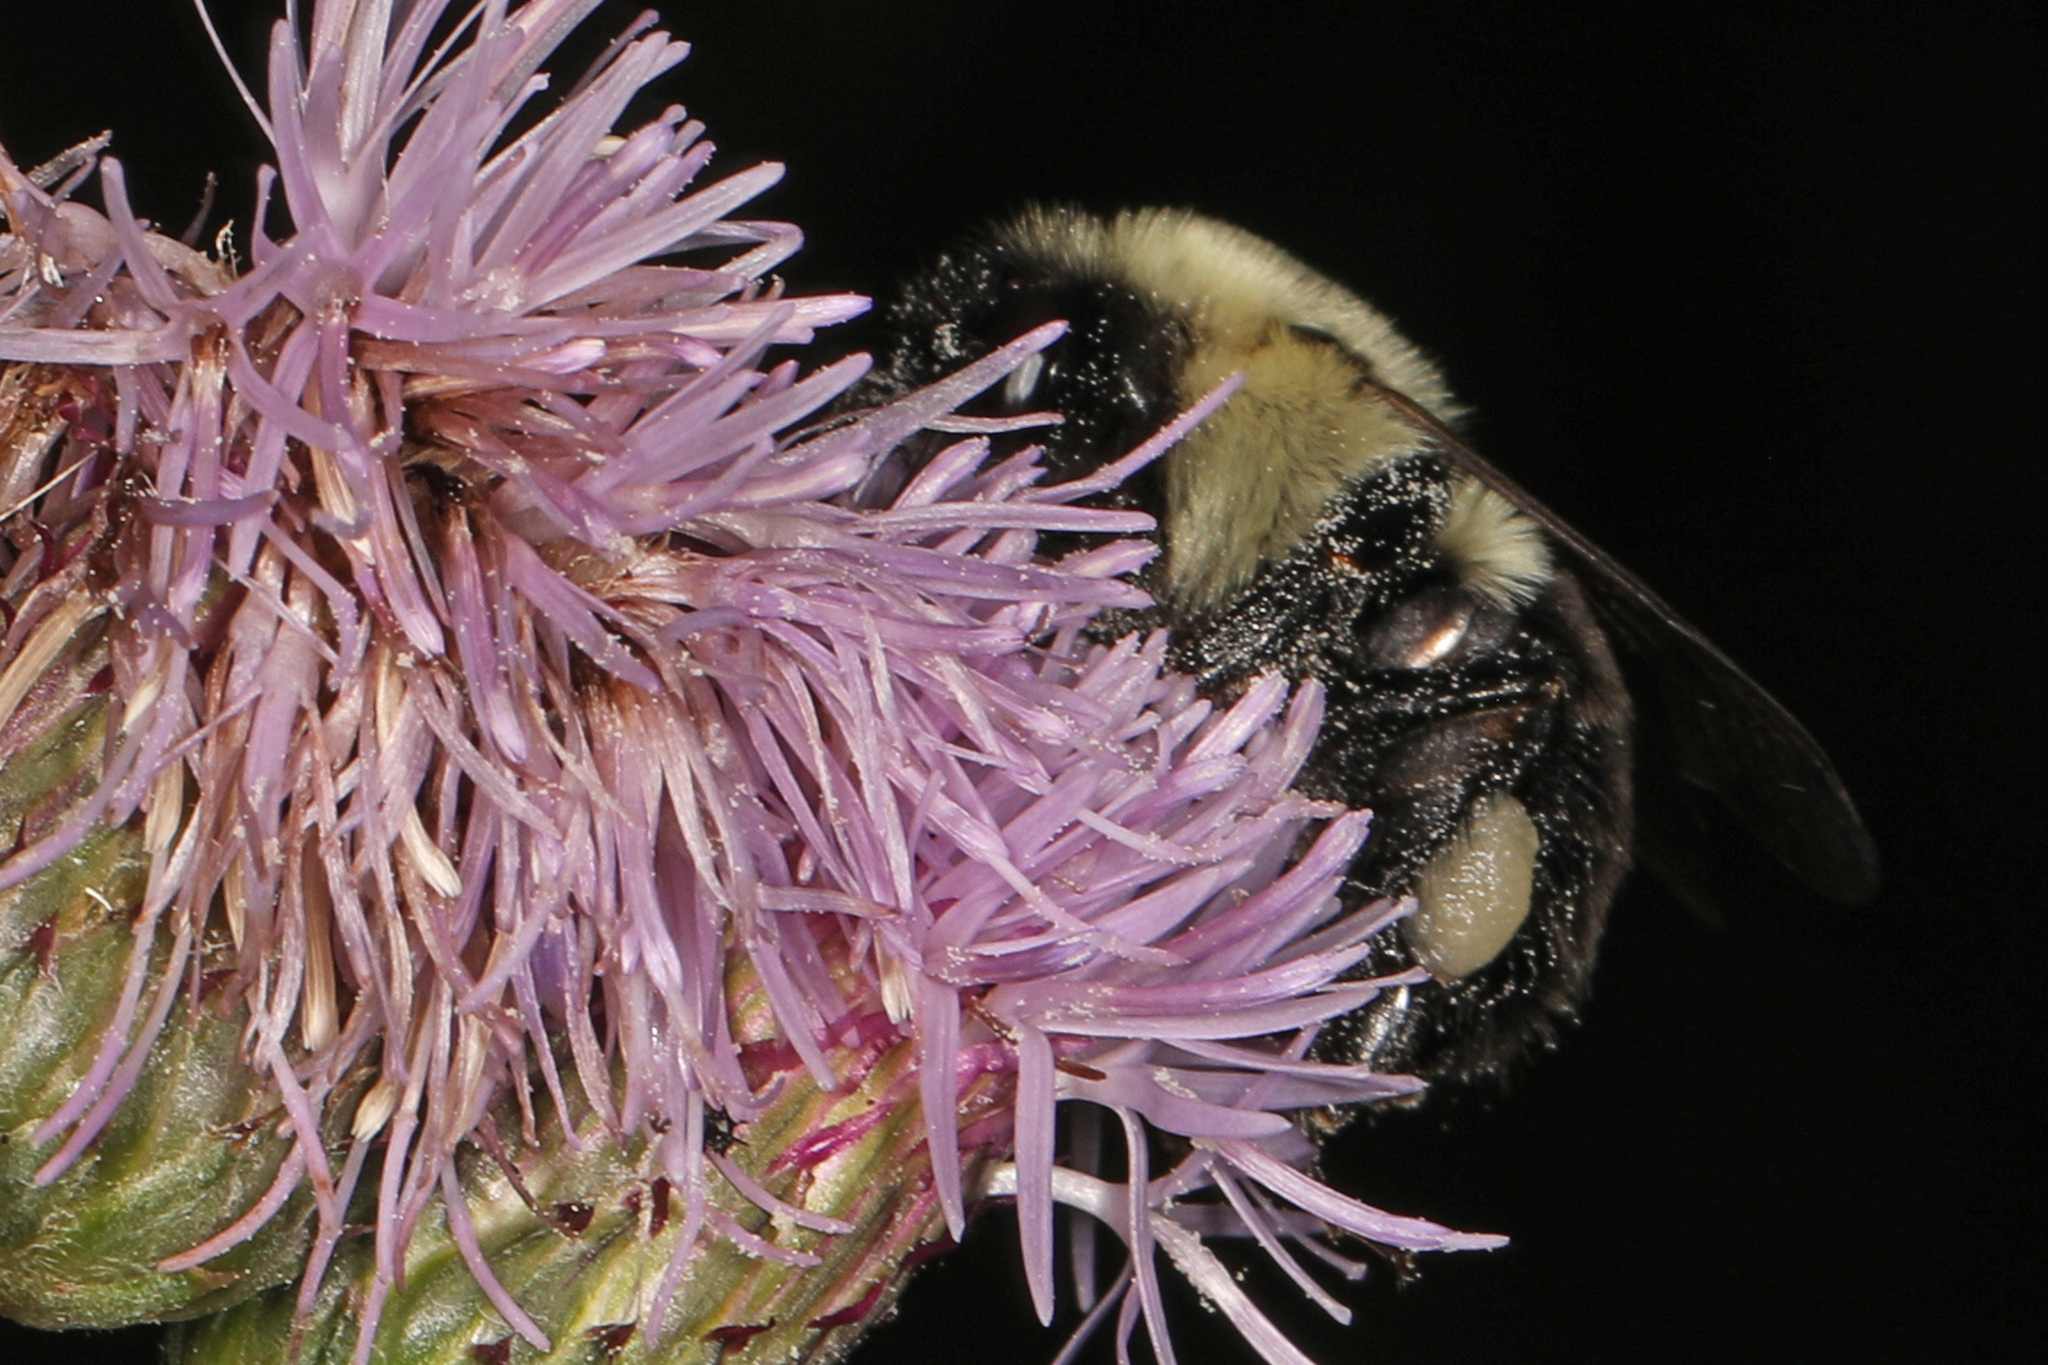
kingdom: Animalia
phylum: Arthropoda
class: Insecta
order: Hymenoptera
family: Apidae
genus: Bombus
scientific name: Bombus impatiens
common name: Common eastern bumble bee
